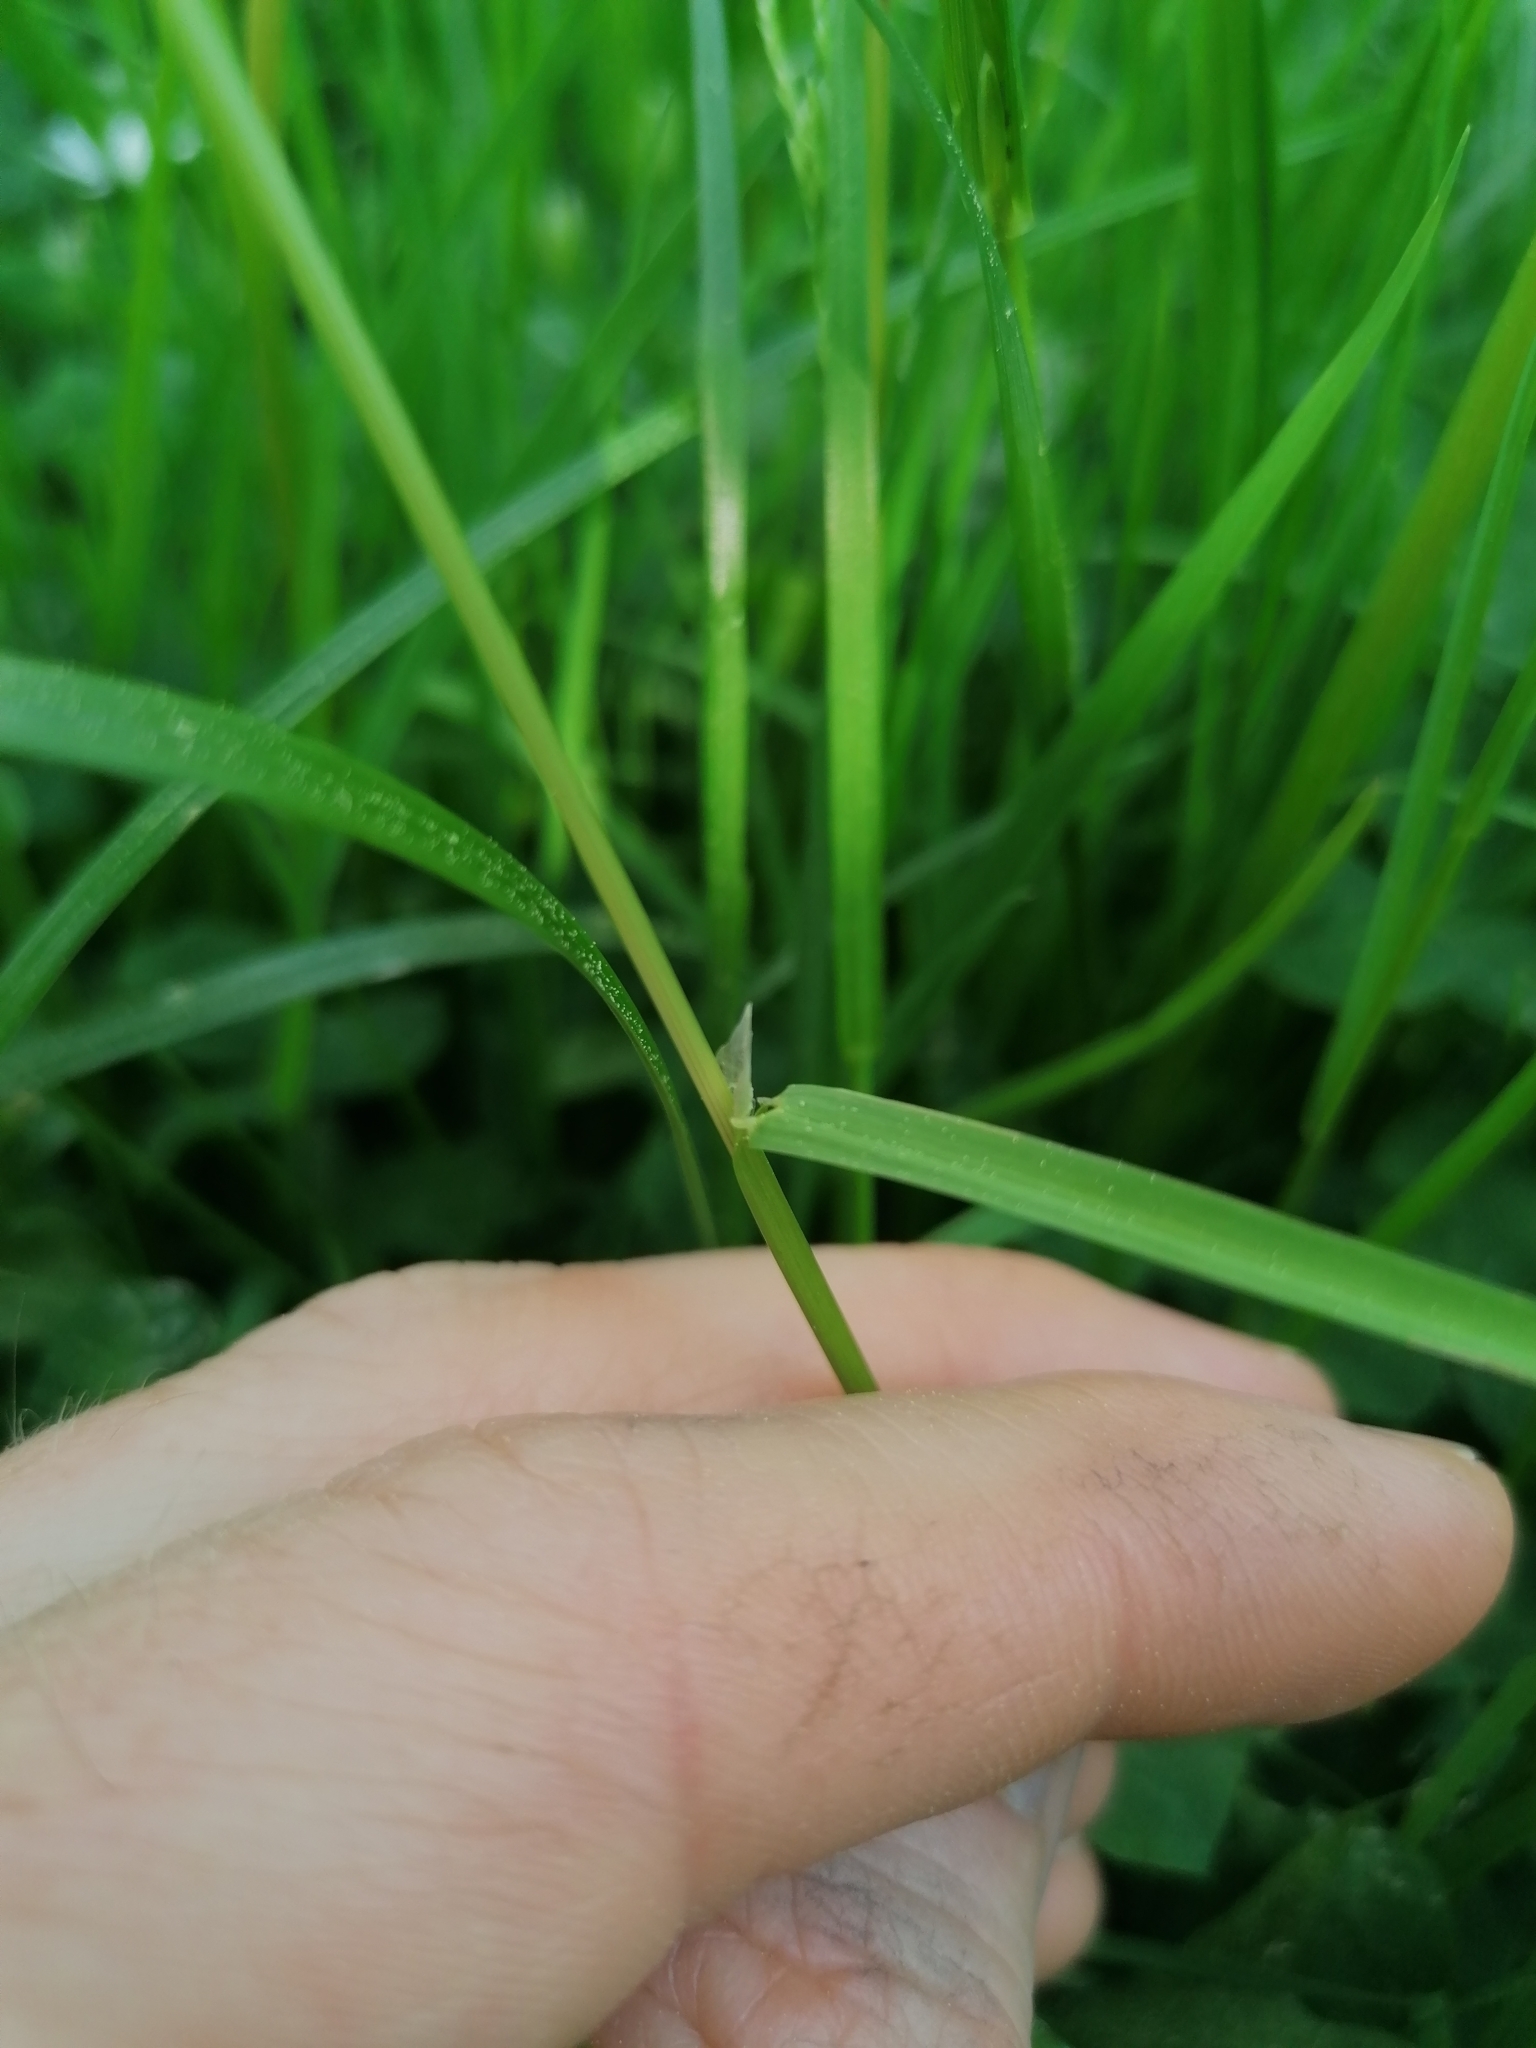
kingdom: Plantae
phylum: Tracheophyta
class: Liliopsida
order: Poales
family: Poaceae
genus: Poa
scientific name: Poa trivialis
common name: Rough bluegrass
